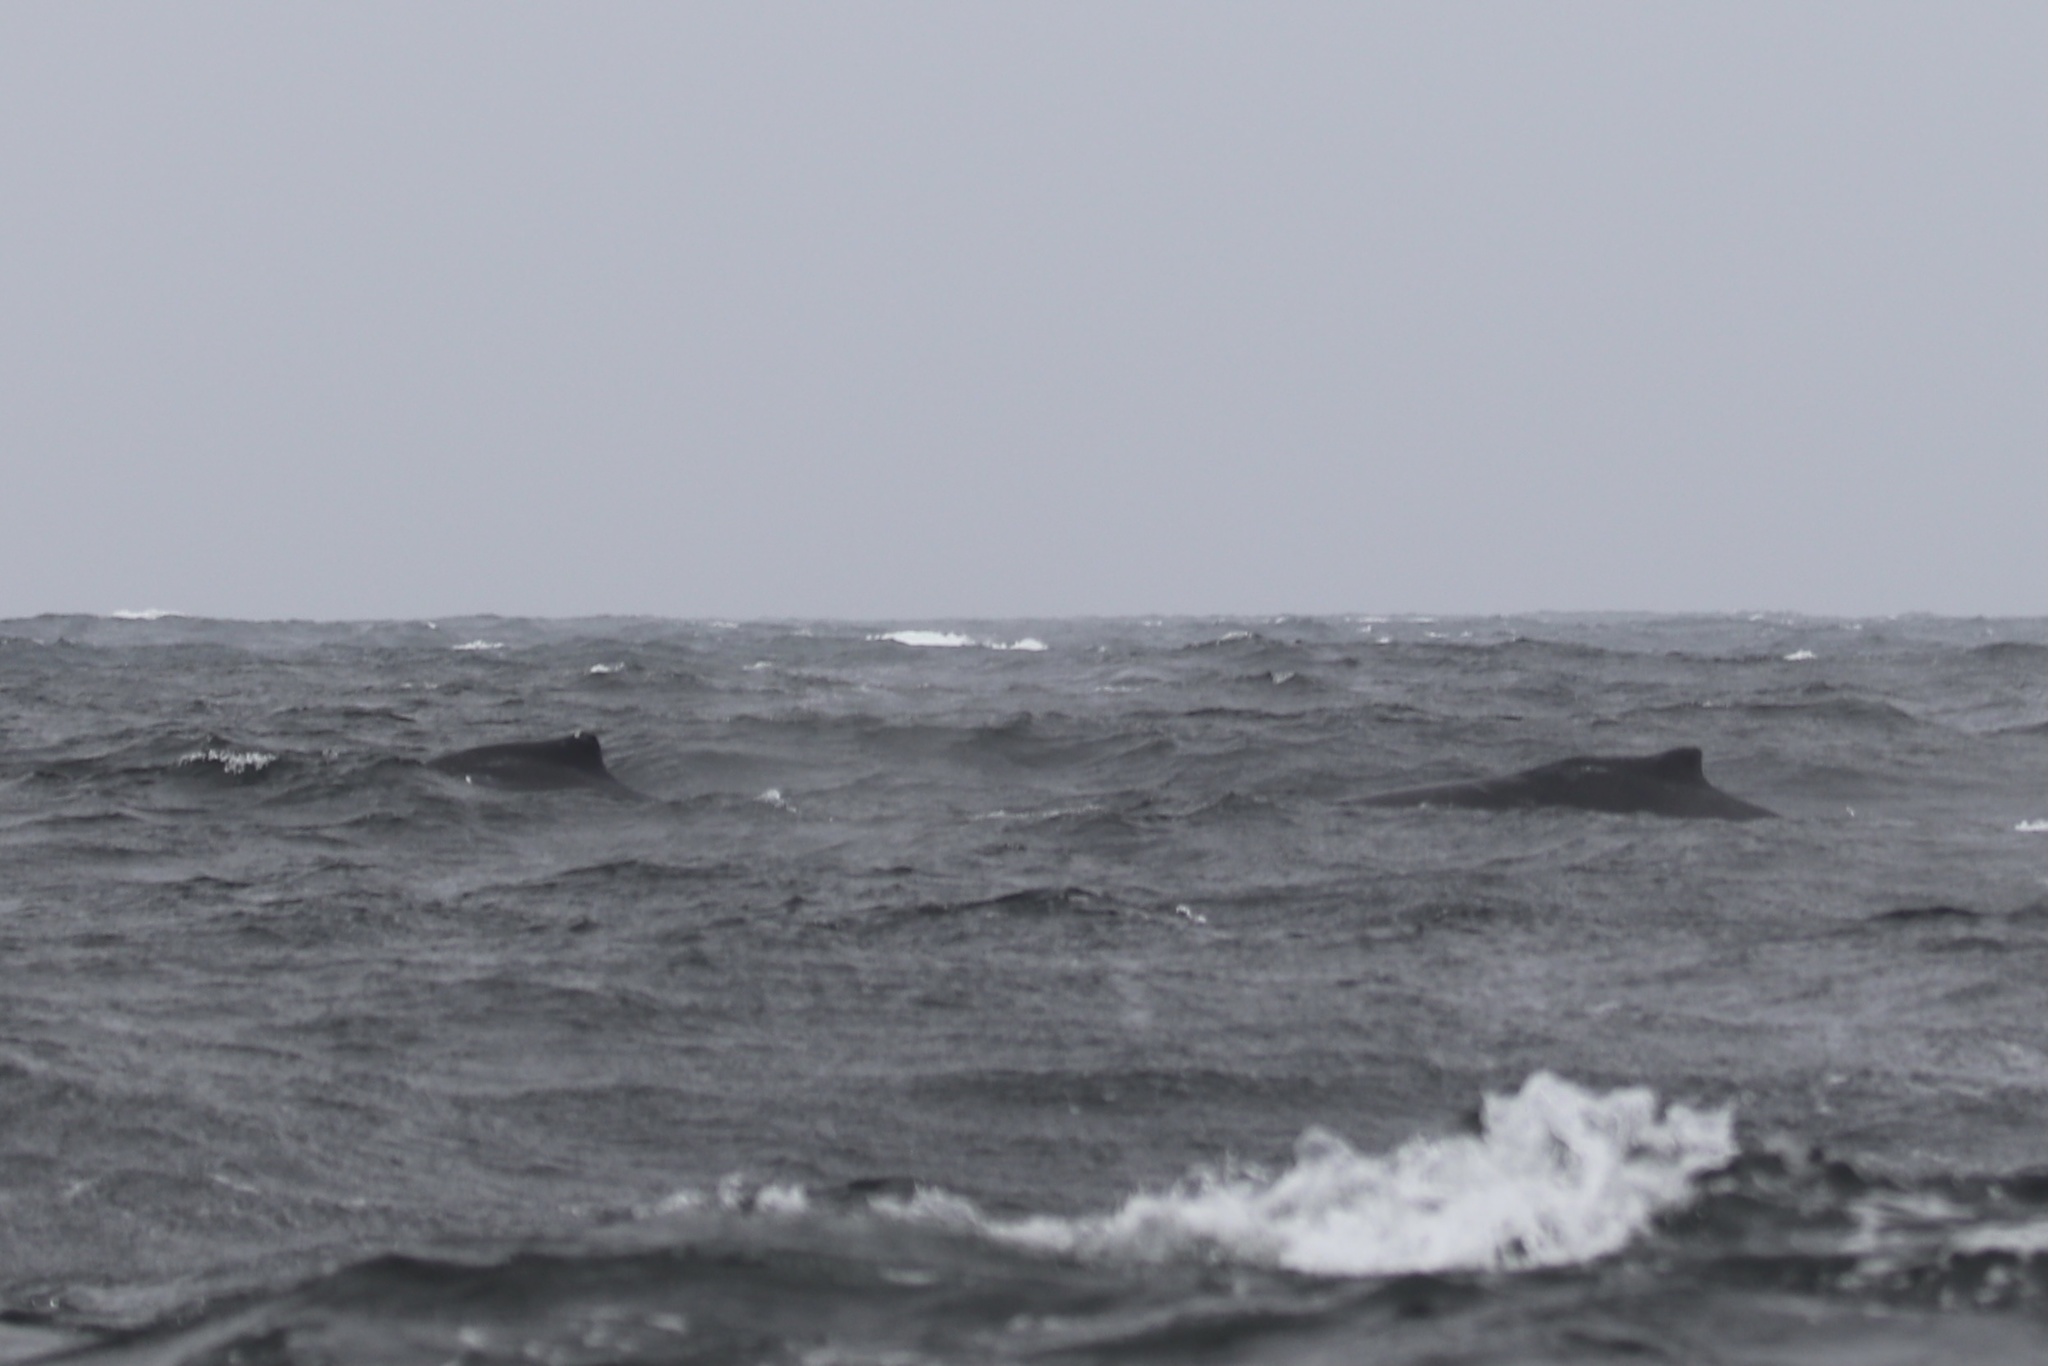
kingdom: Animalia
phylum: Chordata
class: Mammalia
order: Cetacea
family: Balaenopteridae
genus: Megaptera
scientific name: Megaptera novaeangliae
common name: Humpback whale
